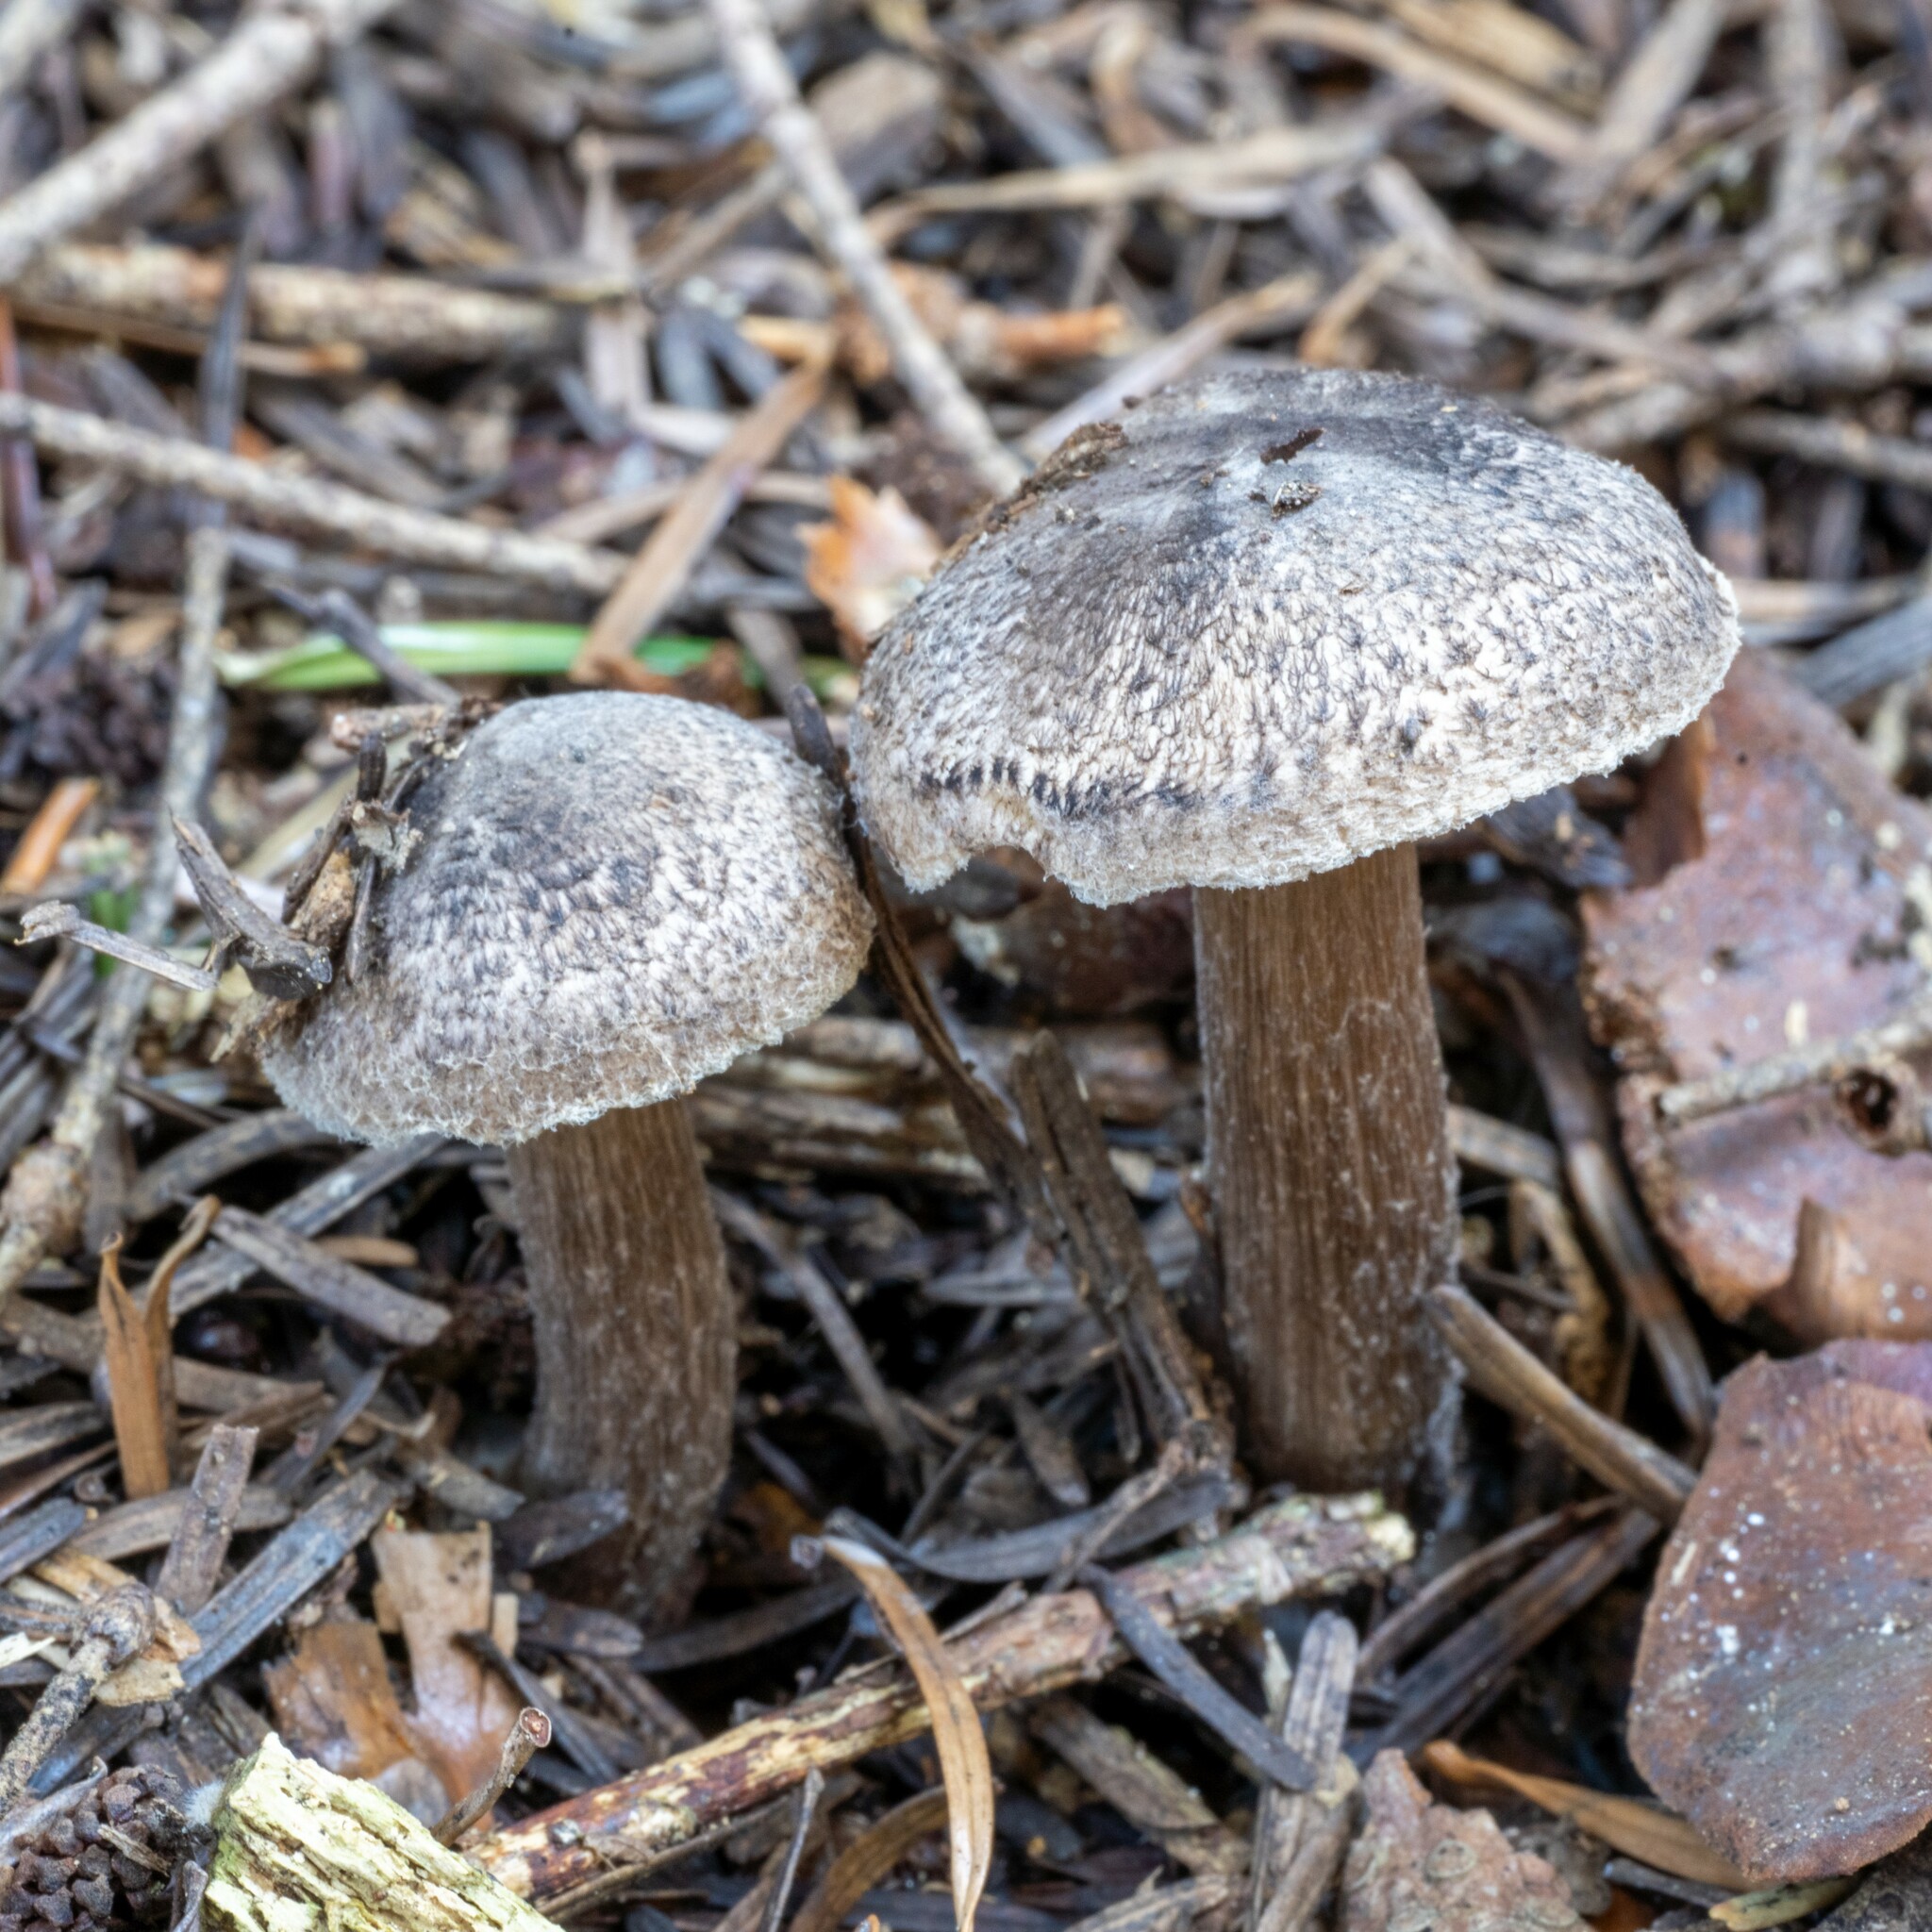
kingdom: Fungi
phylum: Basidiomycota
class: Agaricomycetes
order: Agaricales
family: Tricholomataceae
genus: Tricholoma
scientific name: Tricholoma squarrulosum
